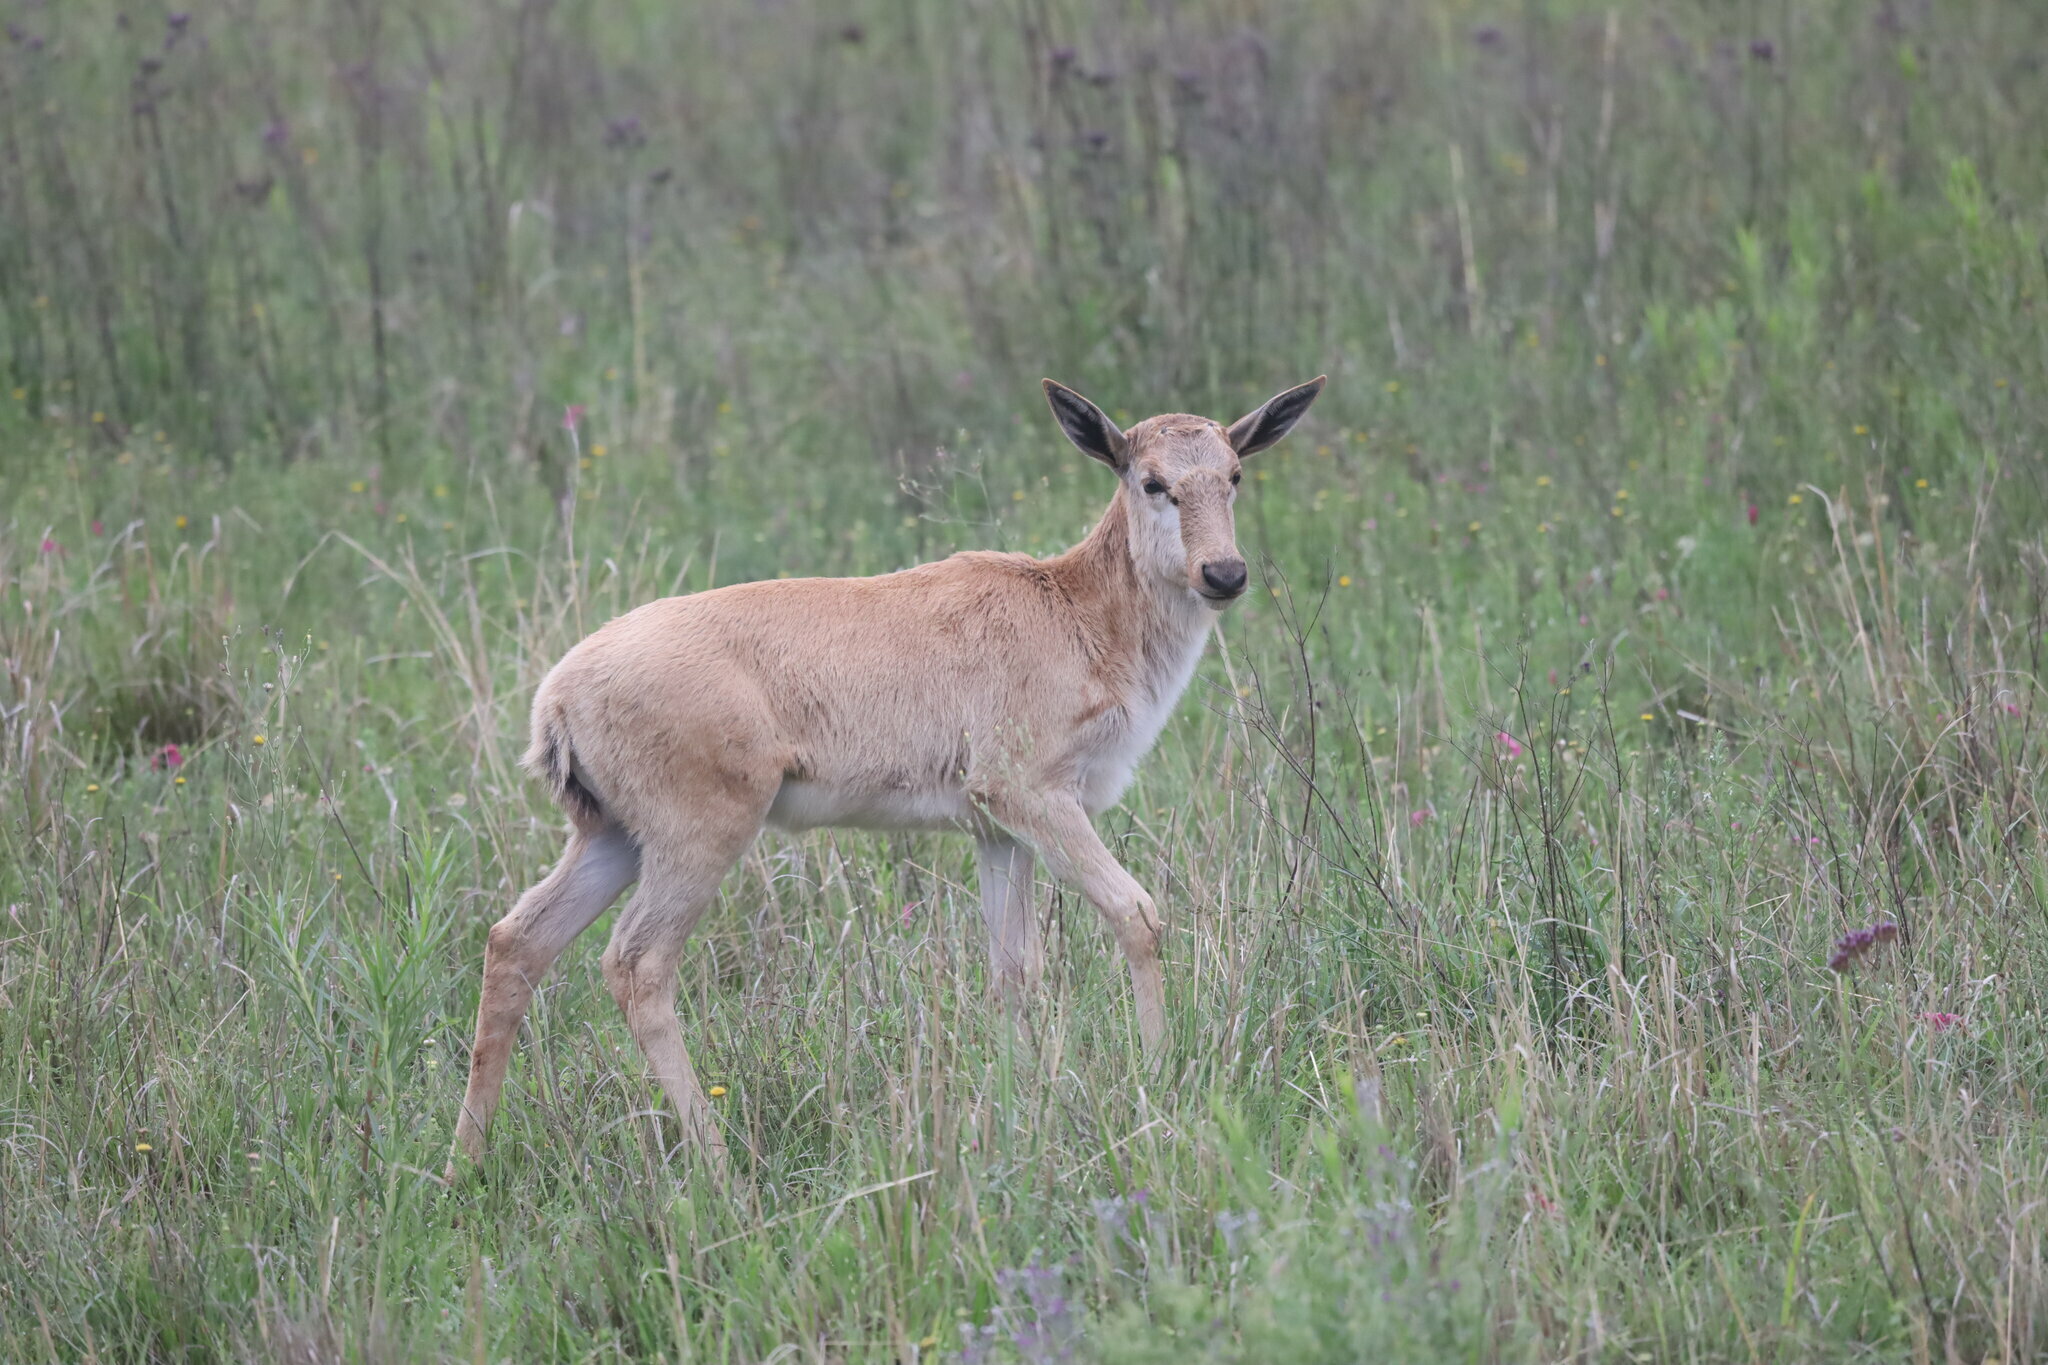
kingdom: Animalia
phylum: Chordata
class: Mammalia
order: Artiodactyla
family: Bovidae
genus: Damaliscus
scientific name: Damaliscus pygargus
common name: Bontebok
